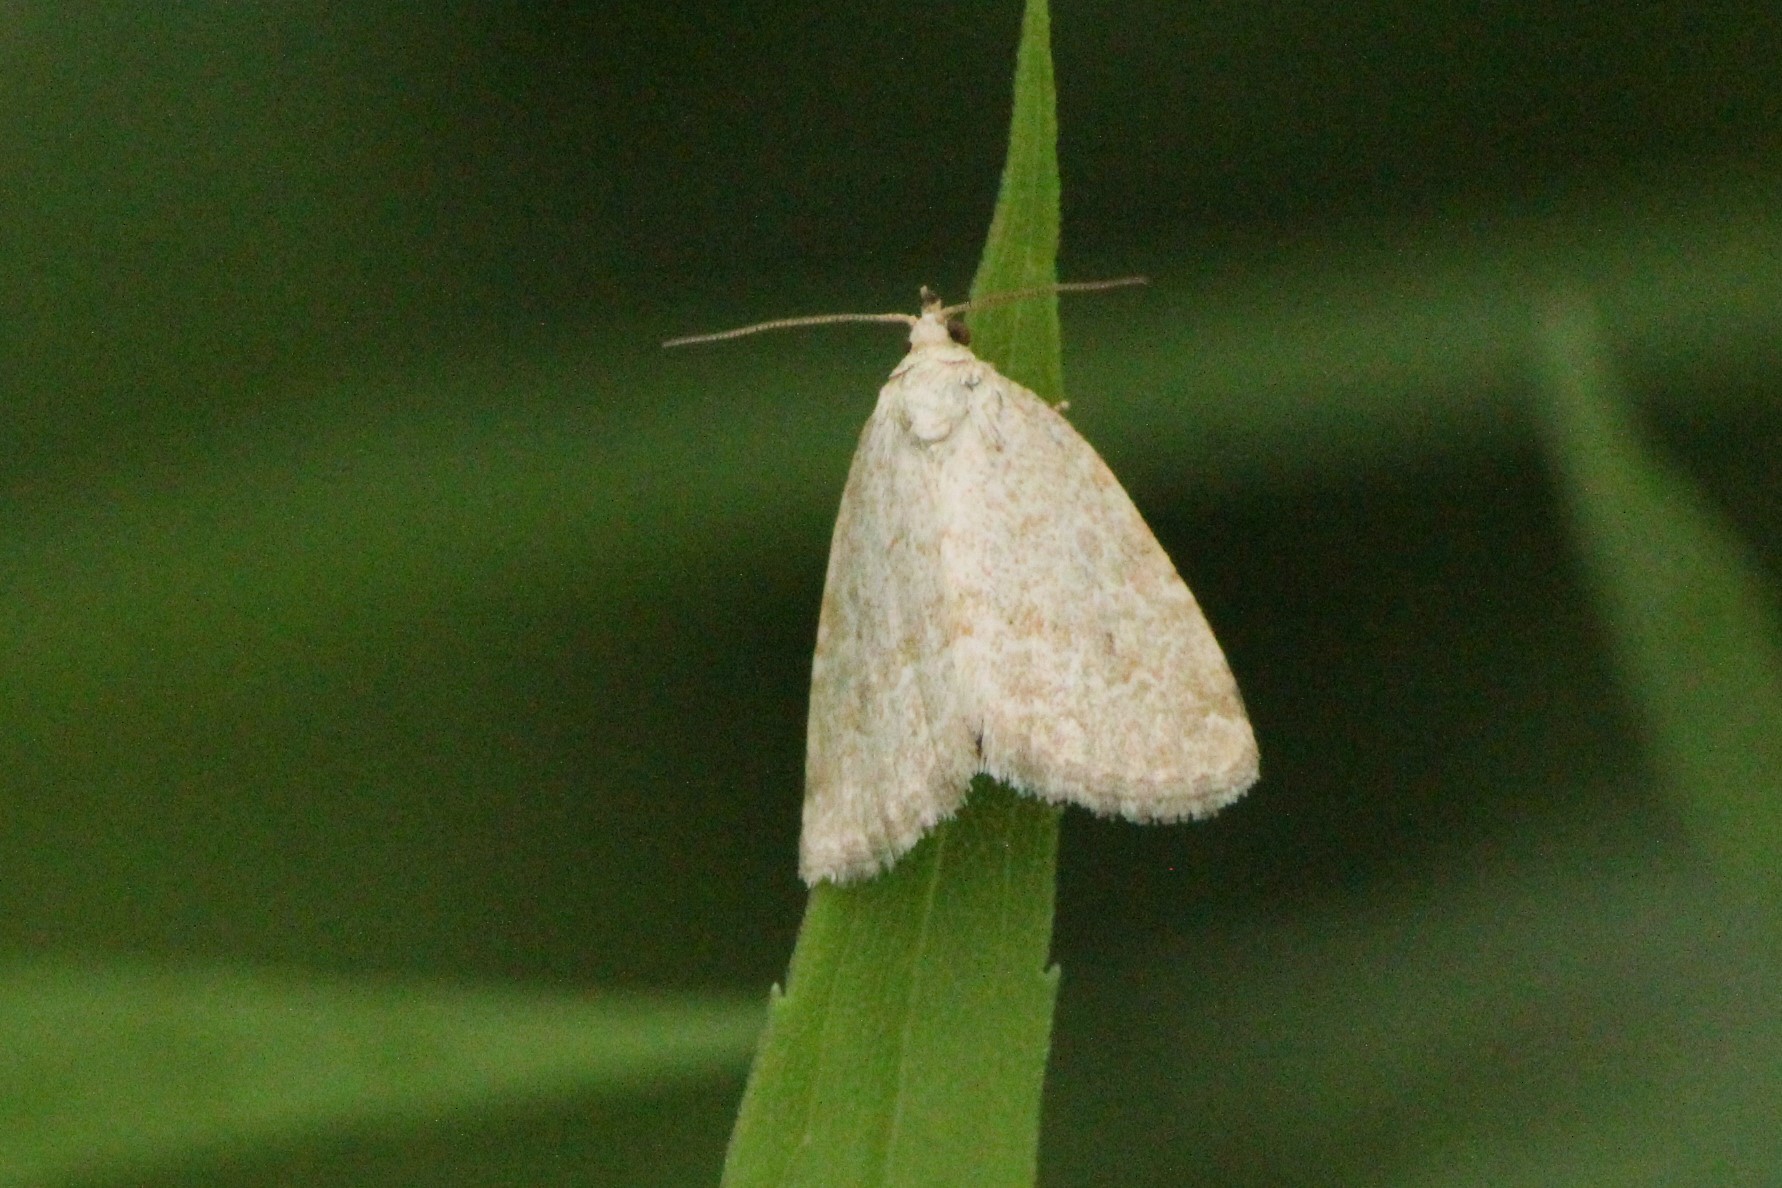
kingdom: Animalia
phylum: Arthropoda
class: Insecta
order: Lepidoptera
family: Noctuidae
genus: Protodeltote
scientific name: Protodeltote albidula
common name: Pale glyph
